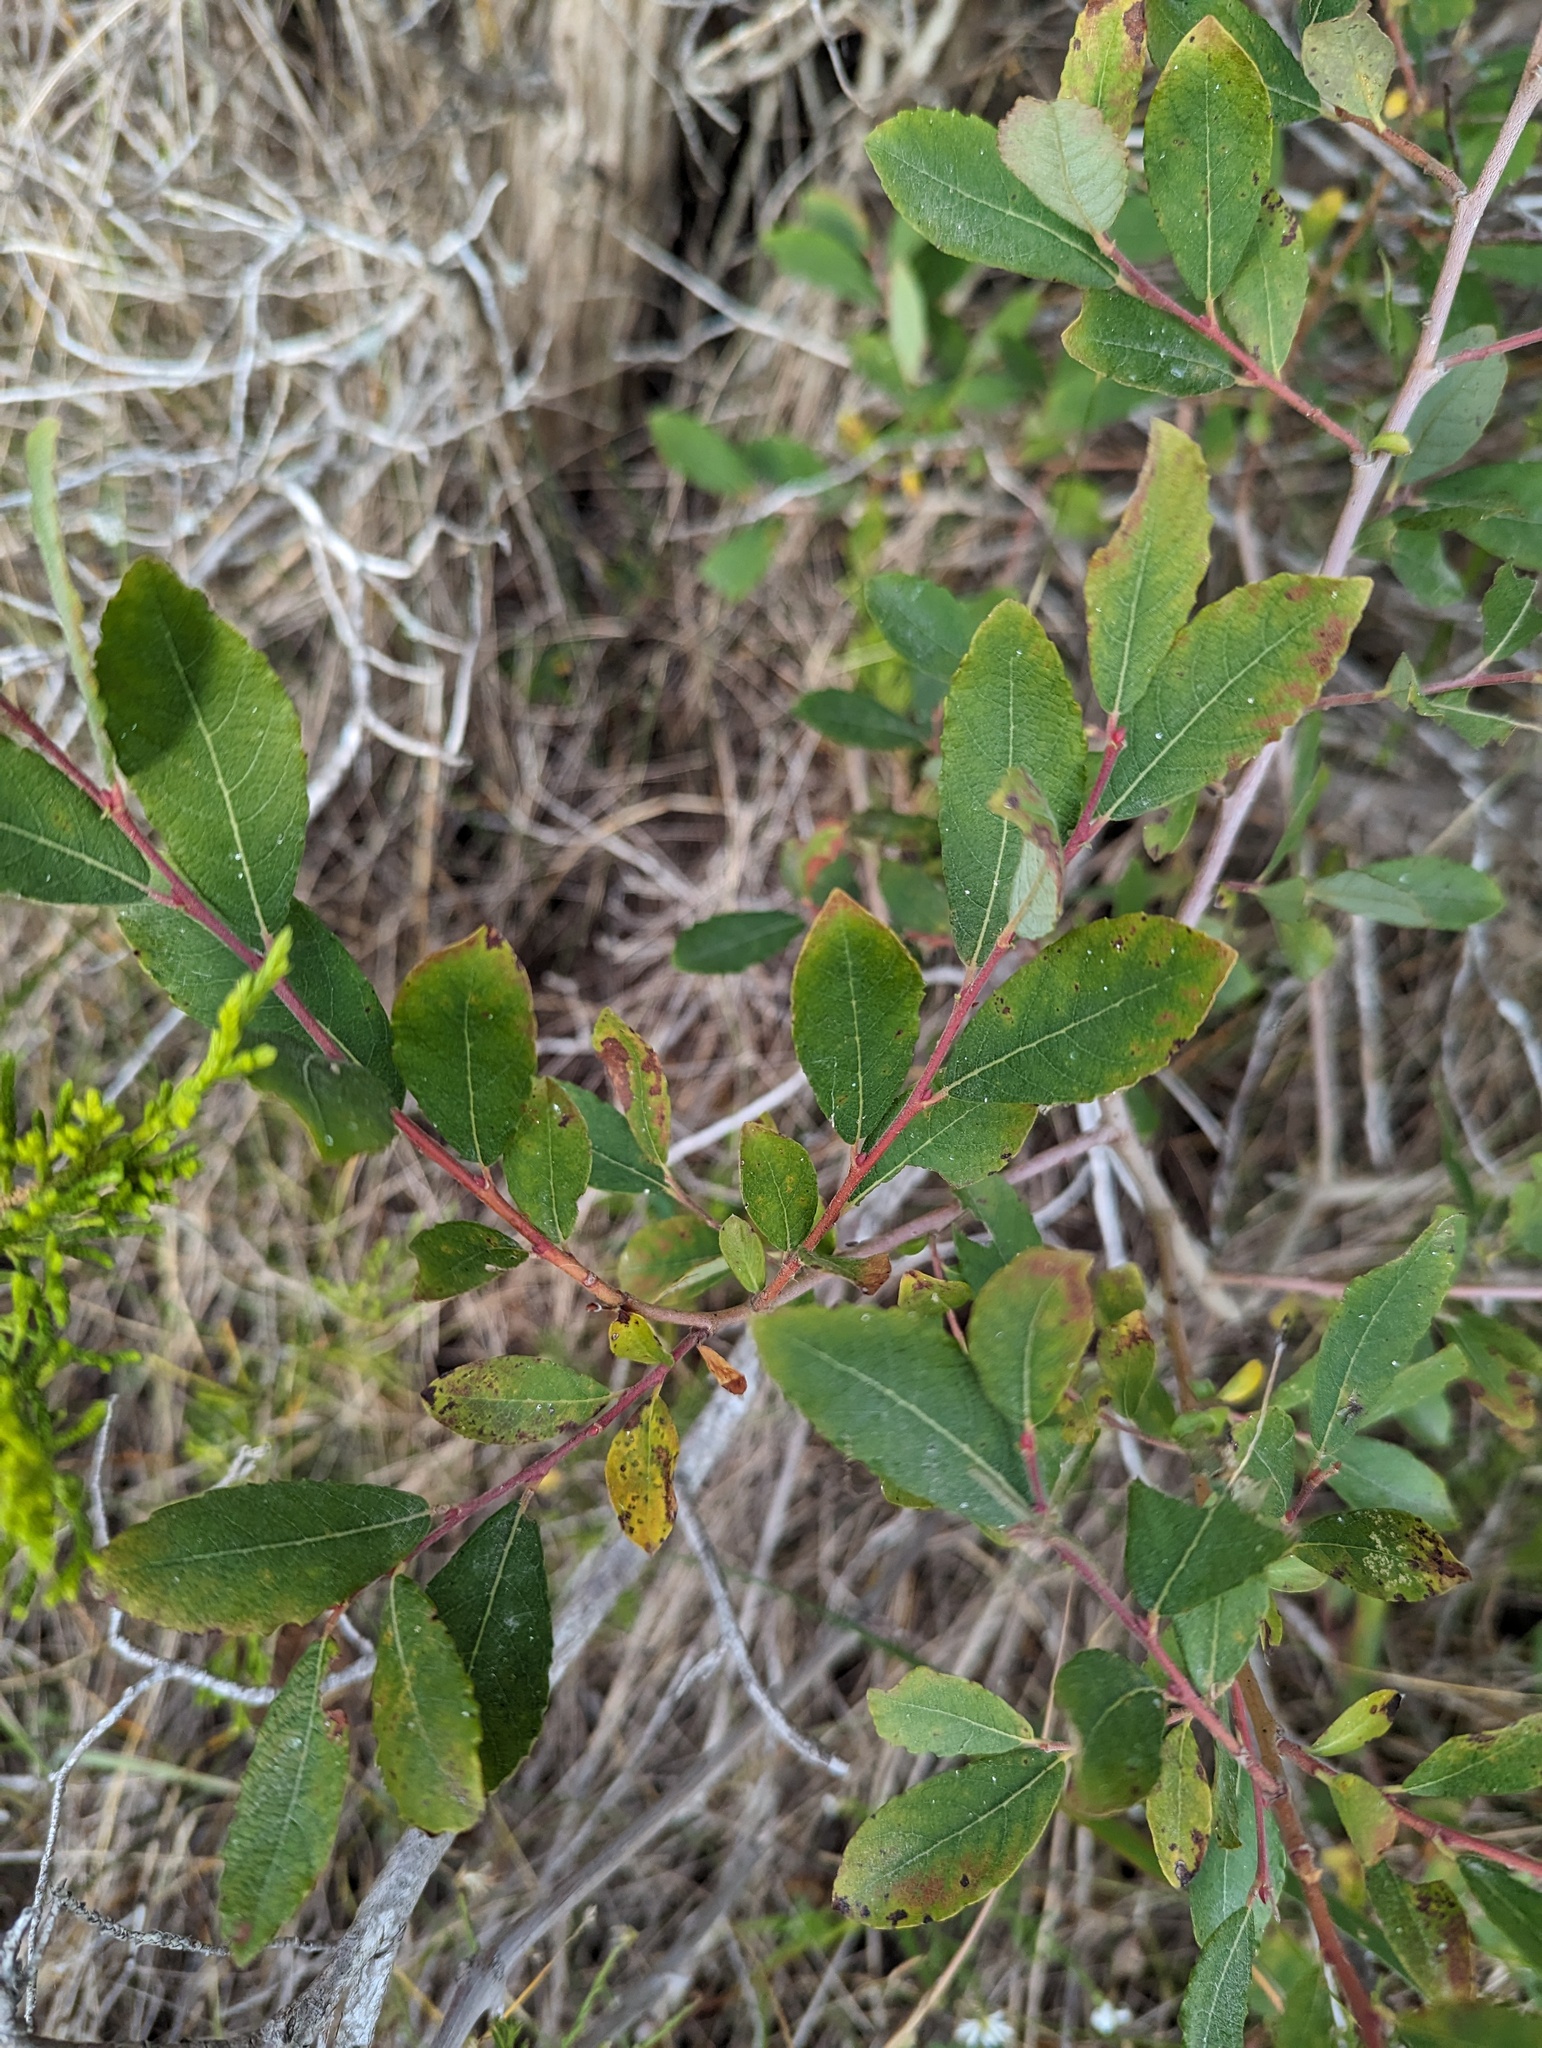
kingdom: Plantae
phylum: Tracheophyta
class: Magnoliopsida
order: Malpighiales
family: Salicaceae
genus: Salix
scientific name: Salix bebbiana
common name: Bebb's willow
